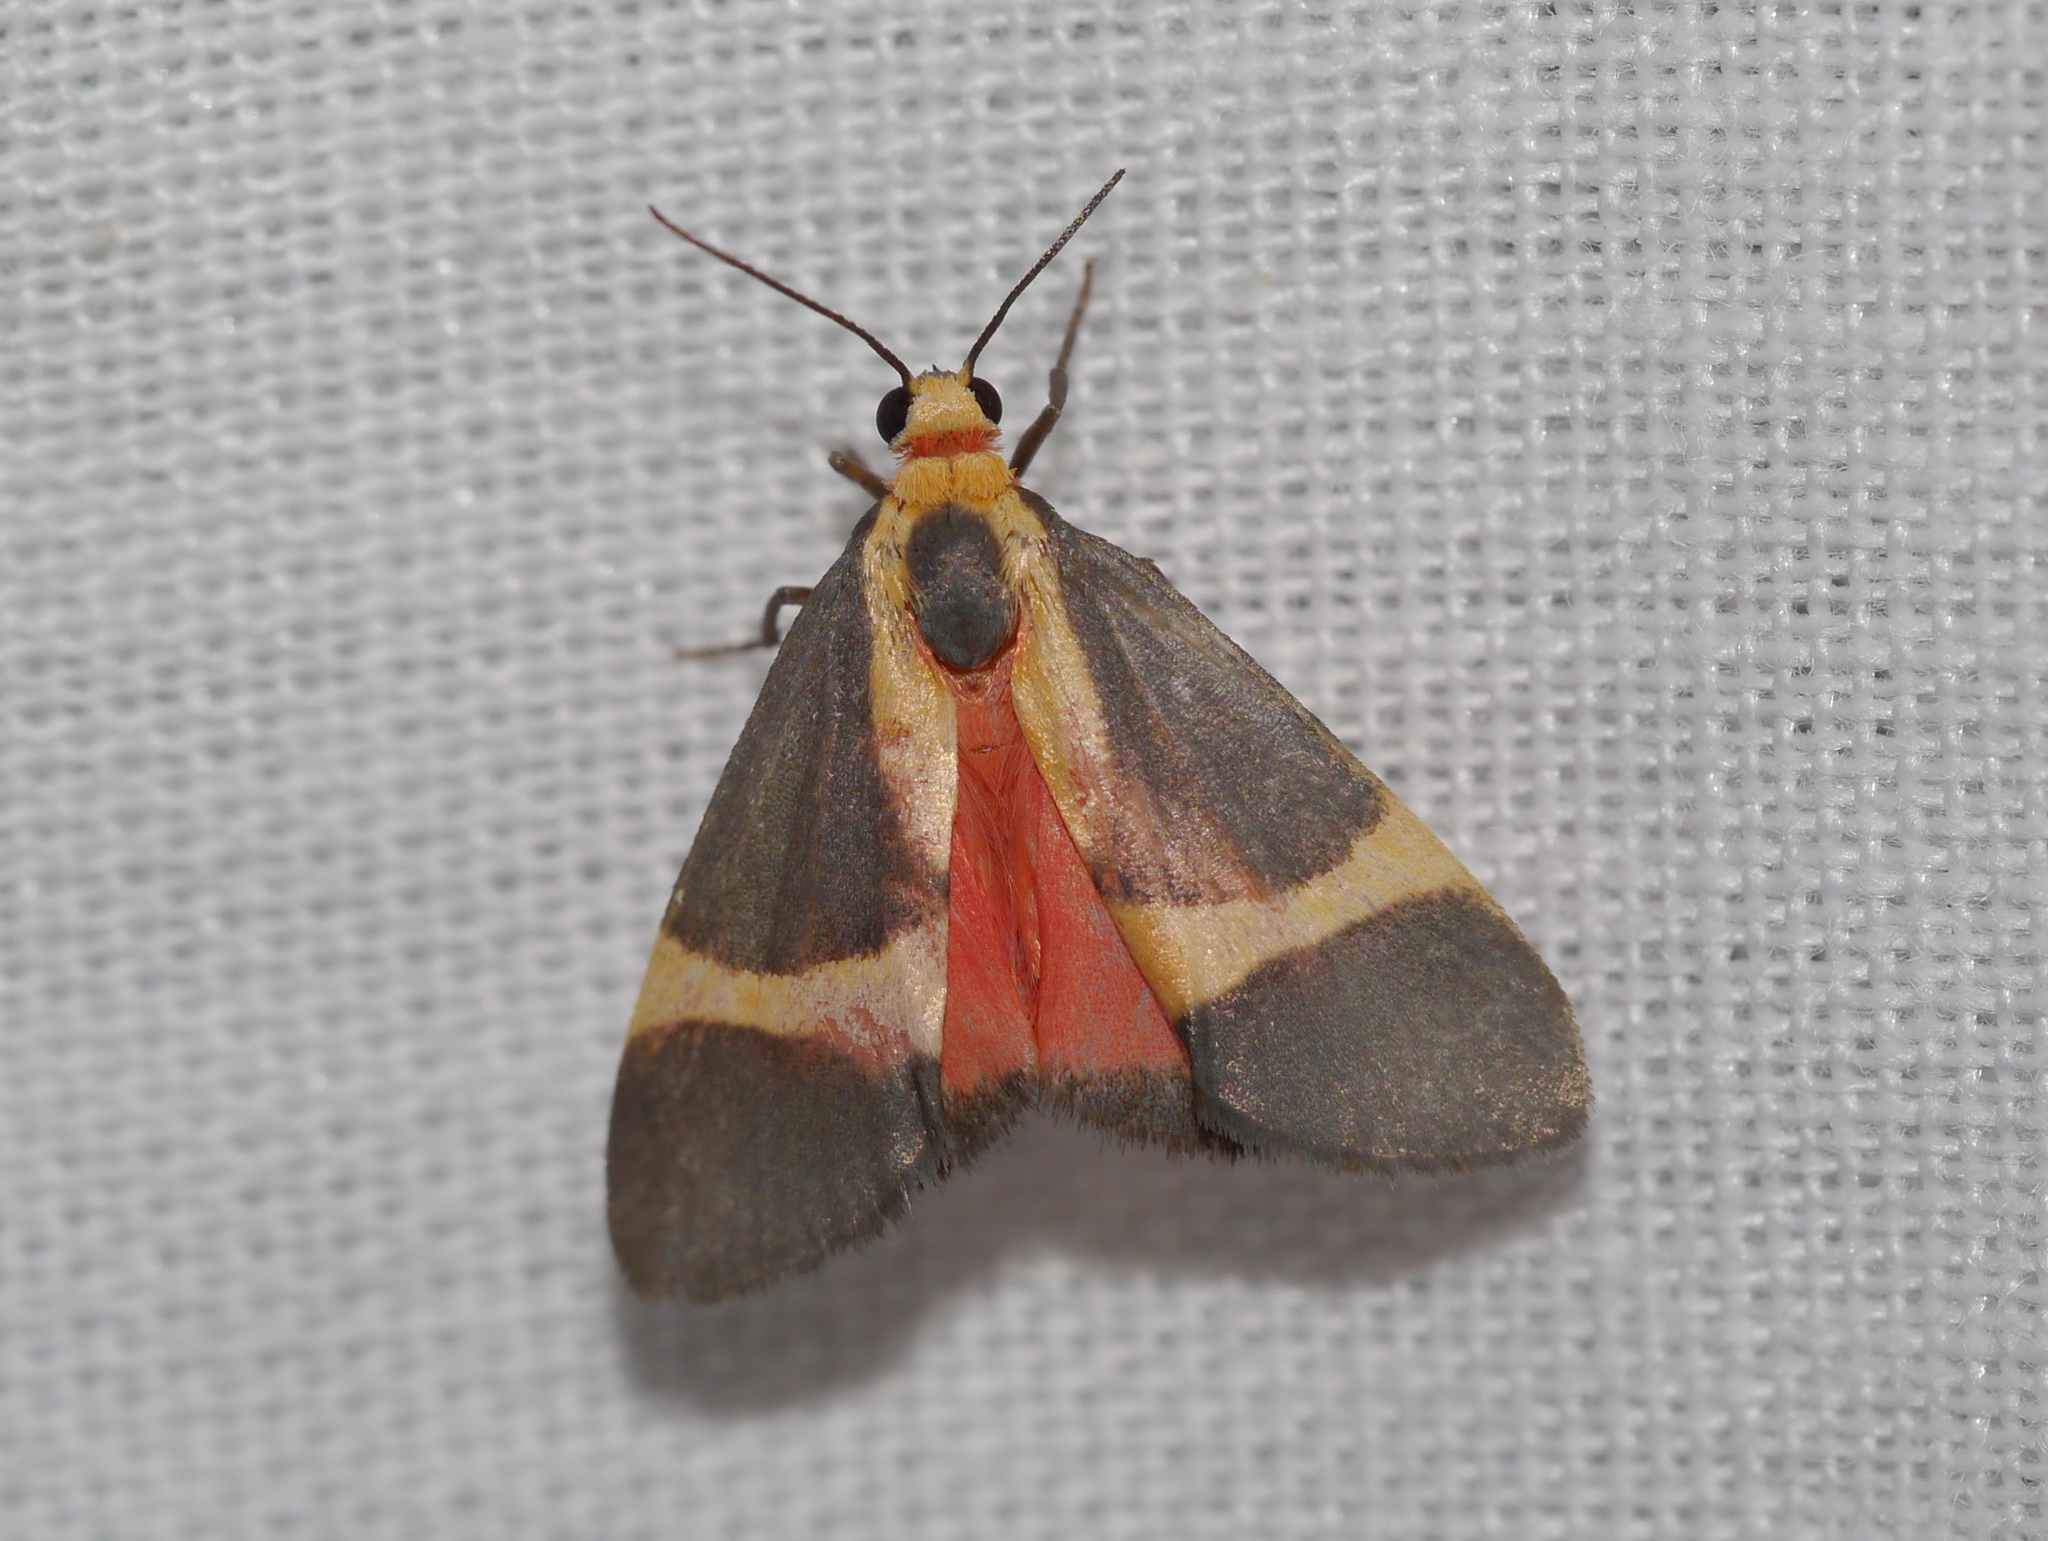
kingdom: Animalia
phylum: Arthropoda
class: Insecta
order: Lepidoptera
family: Erebidae
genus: Cisthene
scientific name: Cisthene tenuifascia
